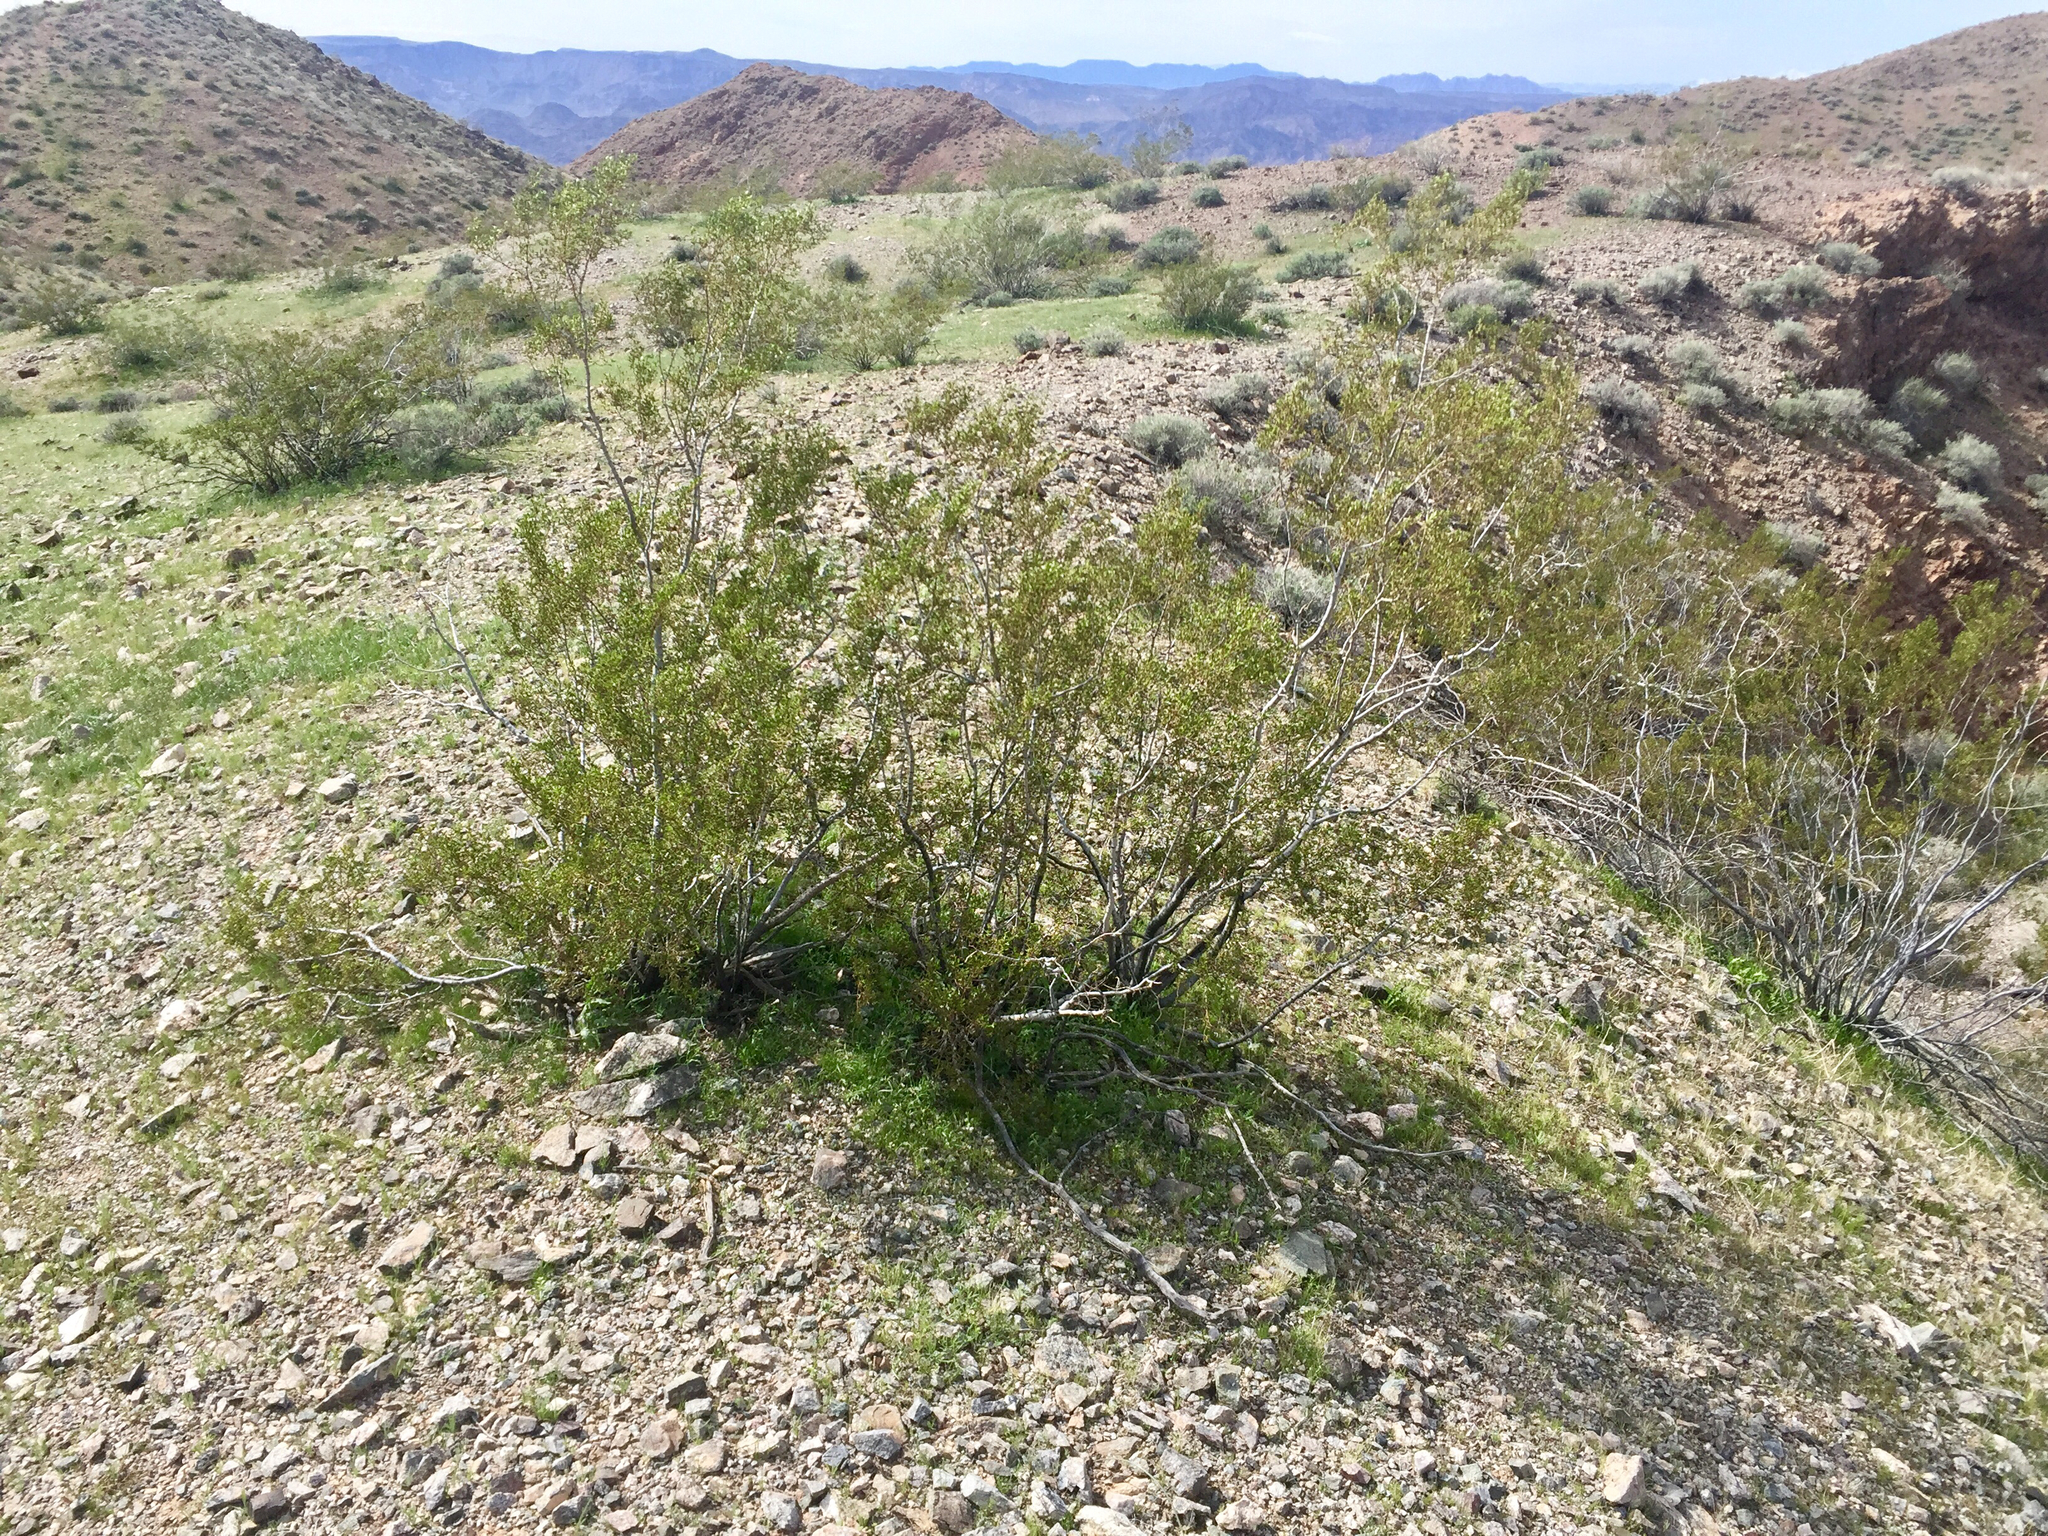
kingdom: Plantae
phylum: Tracheophyta
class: Magnoliopsida
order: Zygophyllales
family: Zygophyllaceae
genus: Larrea
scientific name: Larrea tridentata
